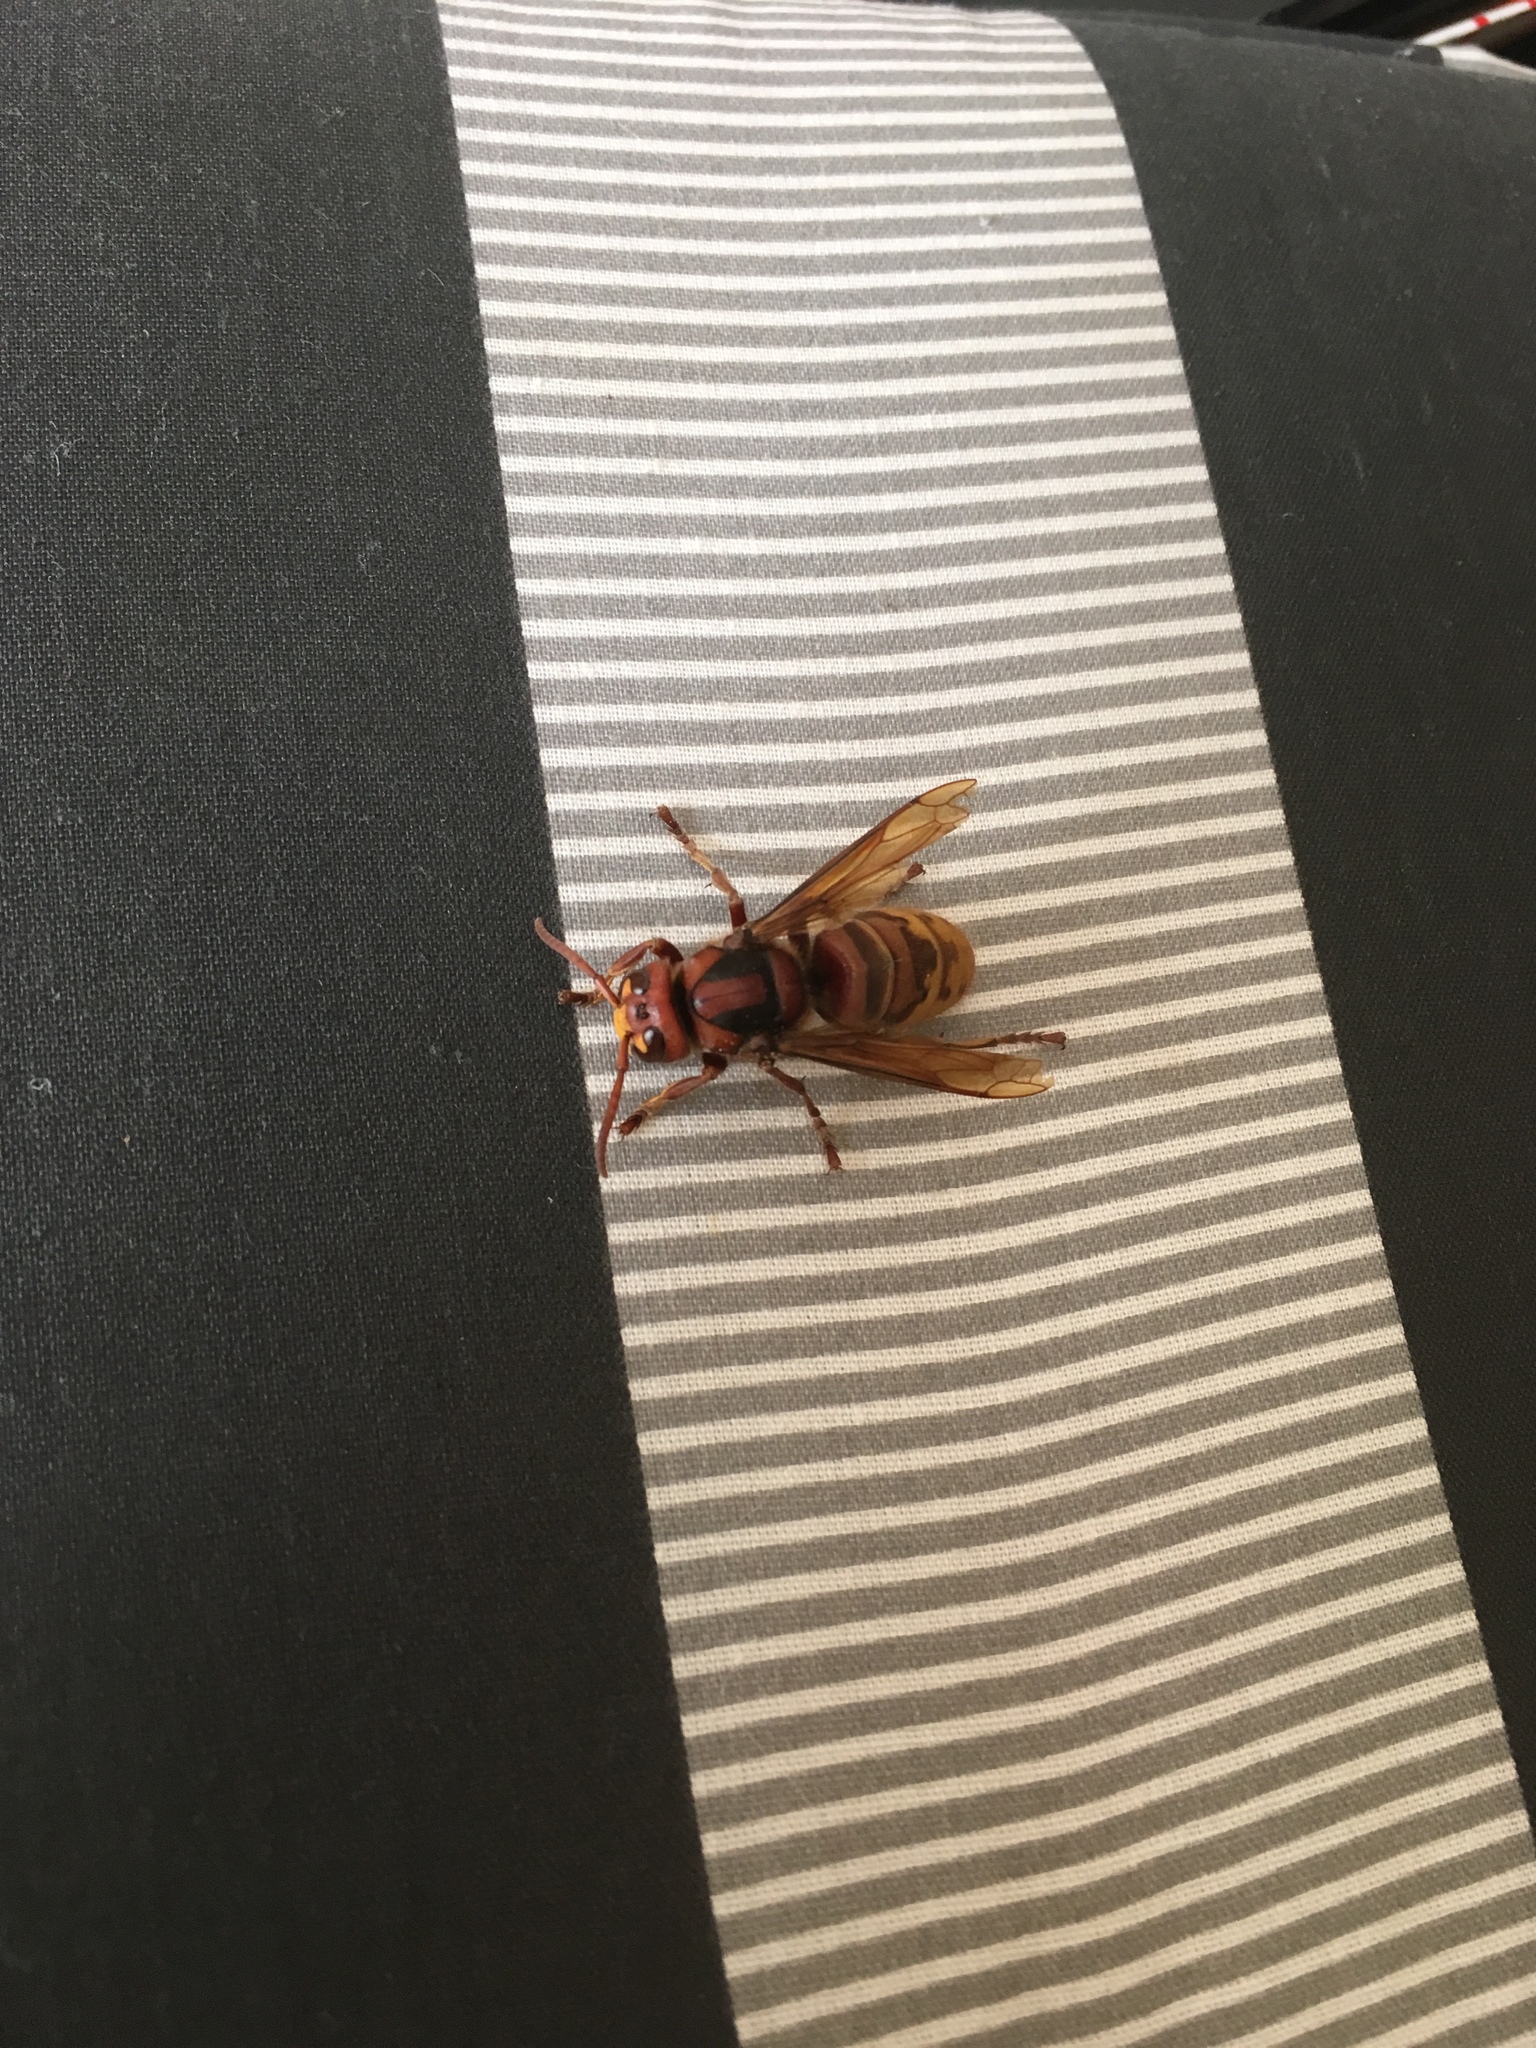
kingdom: Animalia
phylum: Arthropoda
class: Insecta
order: Hymenoptera
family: Vespidae
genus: Vespa
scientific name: Vespa crabro
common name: Hornet
